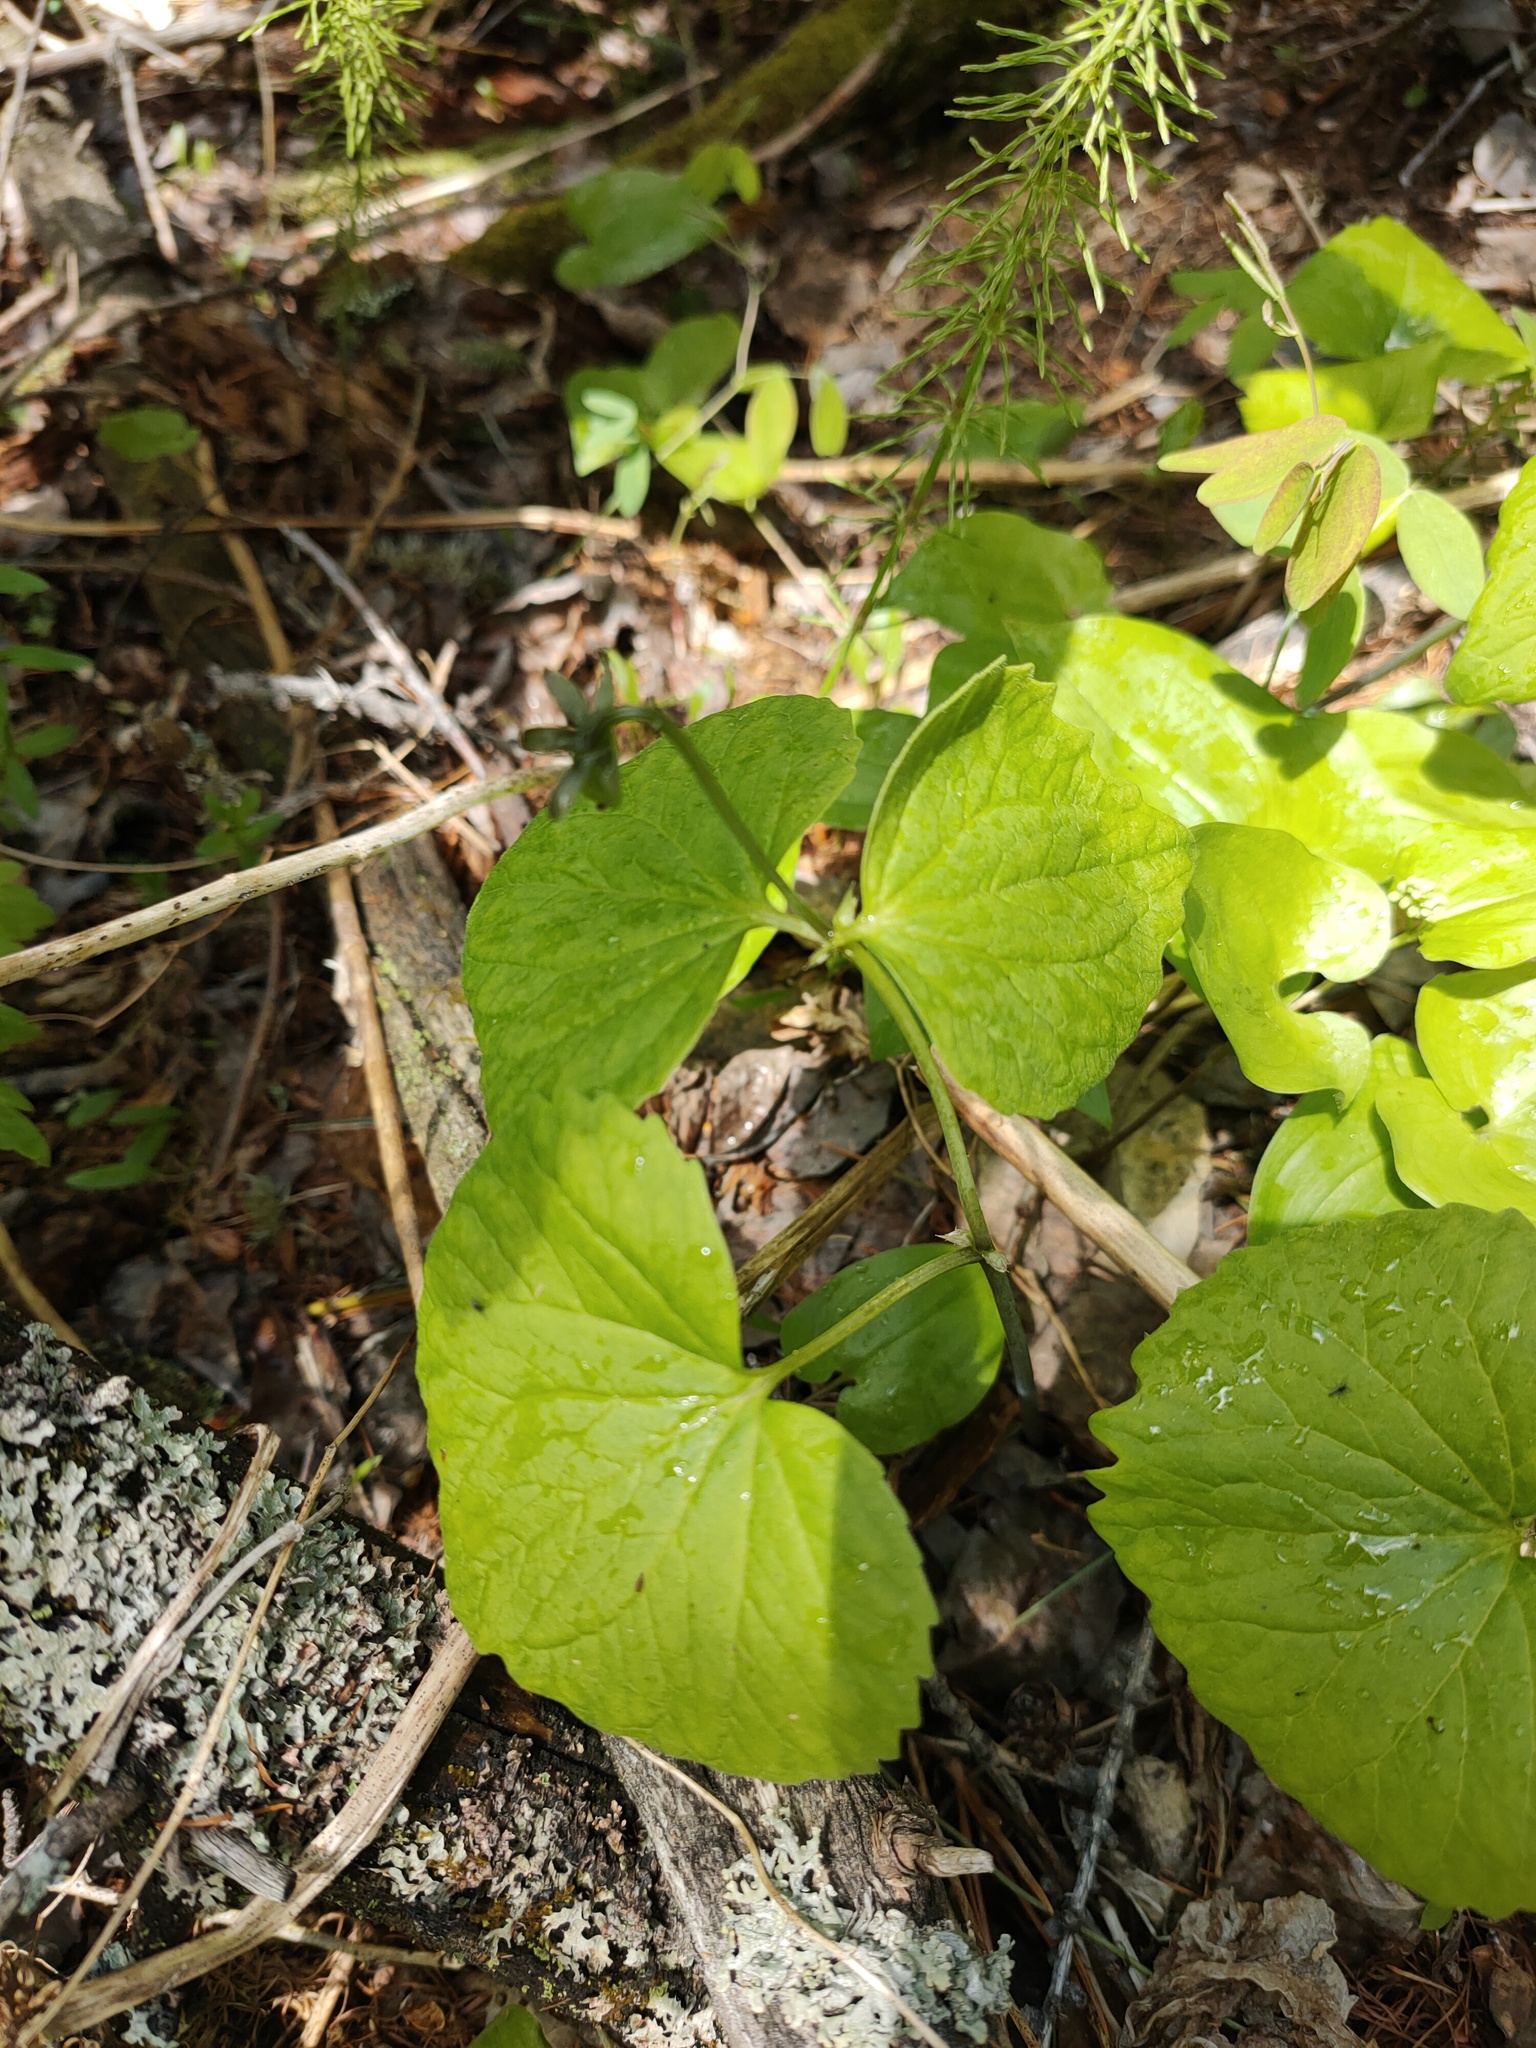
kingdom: Plantae
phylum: Tracheophyta
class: Magnoliopsida
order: Malpighiales
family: Violaceae
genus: Viola
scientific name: Viola uniflora
